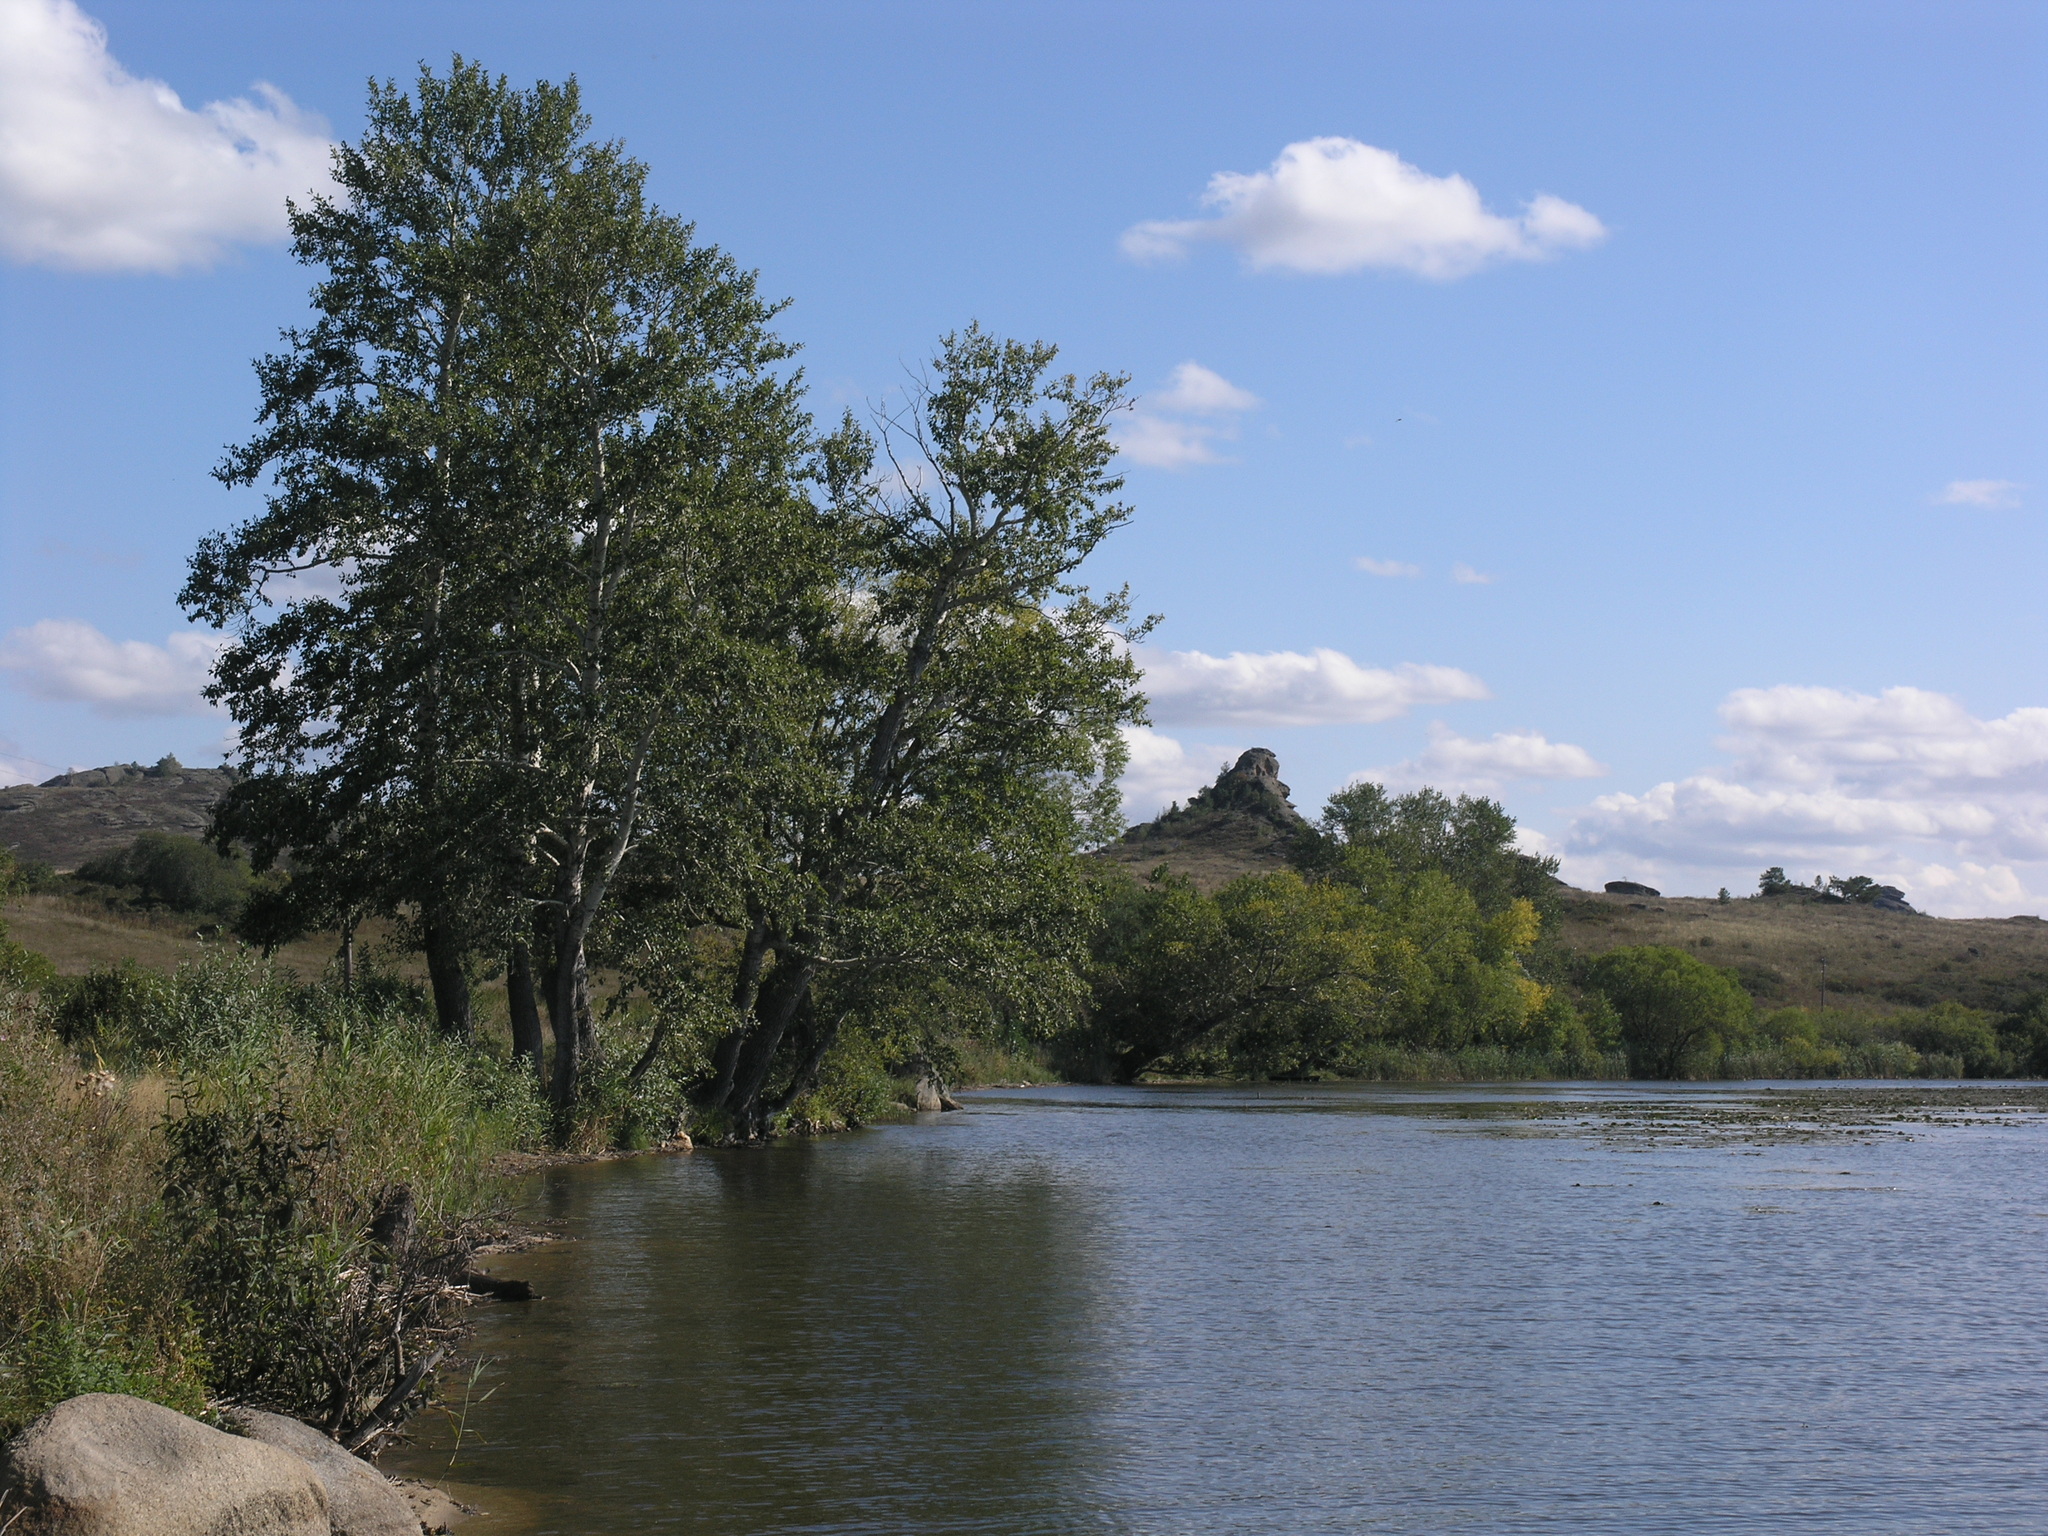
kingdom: Plantae
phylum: Tracheophyta
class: Magnoliopsida
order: Malpighiales
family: Salicaceae
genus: Populus
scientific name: Populus nigra
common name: Black poplar
